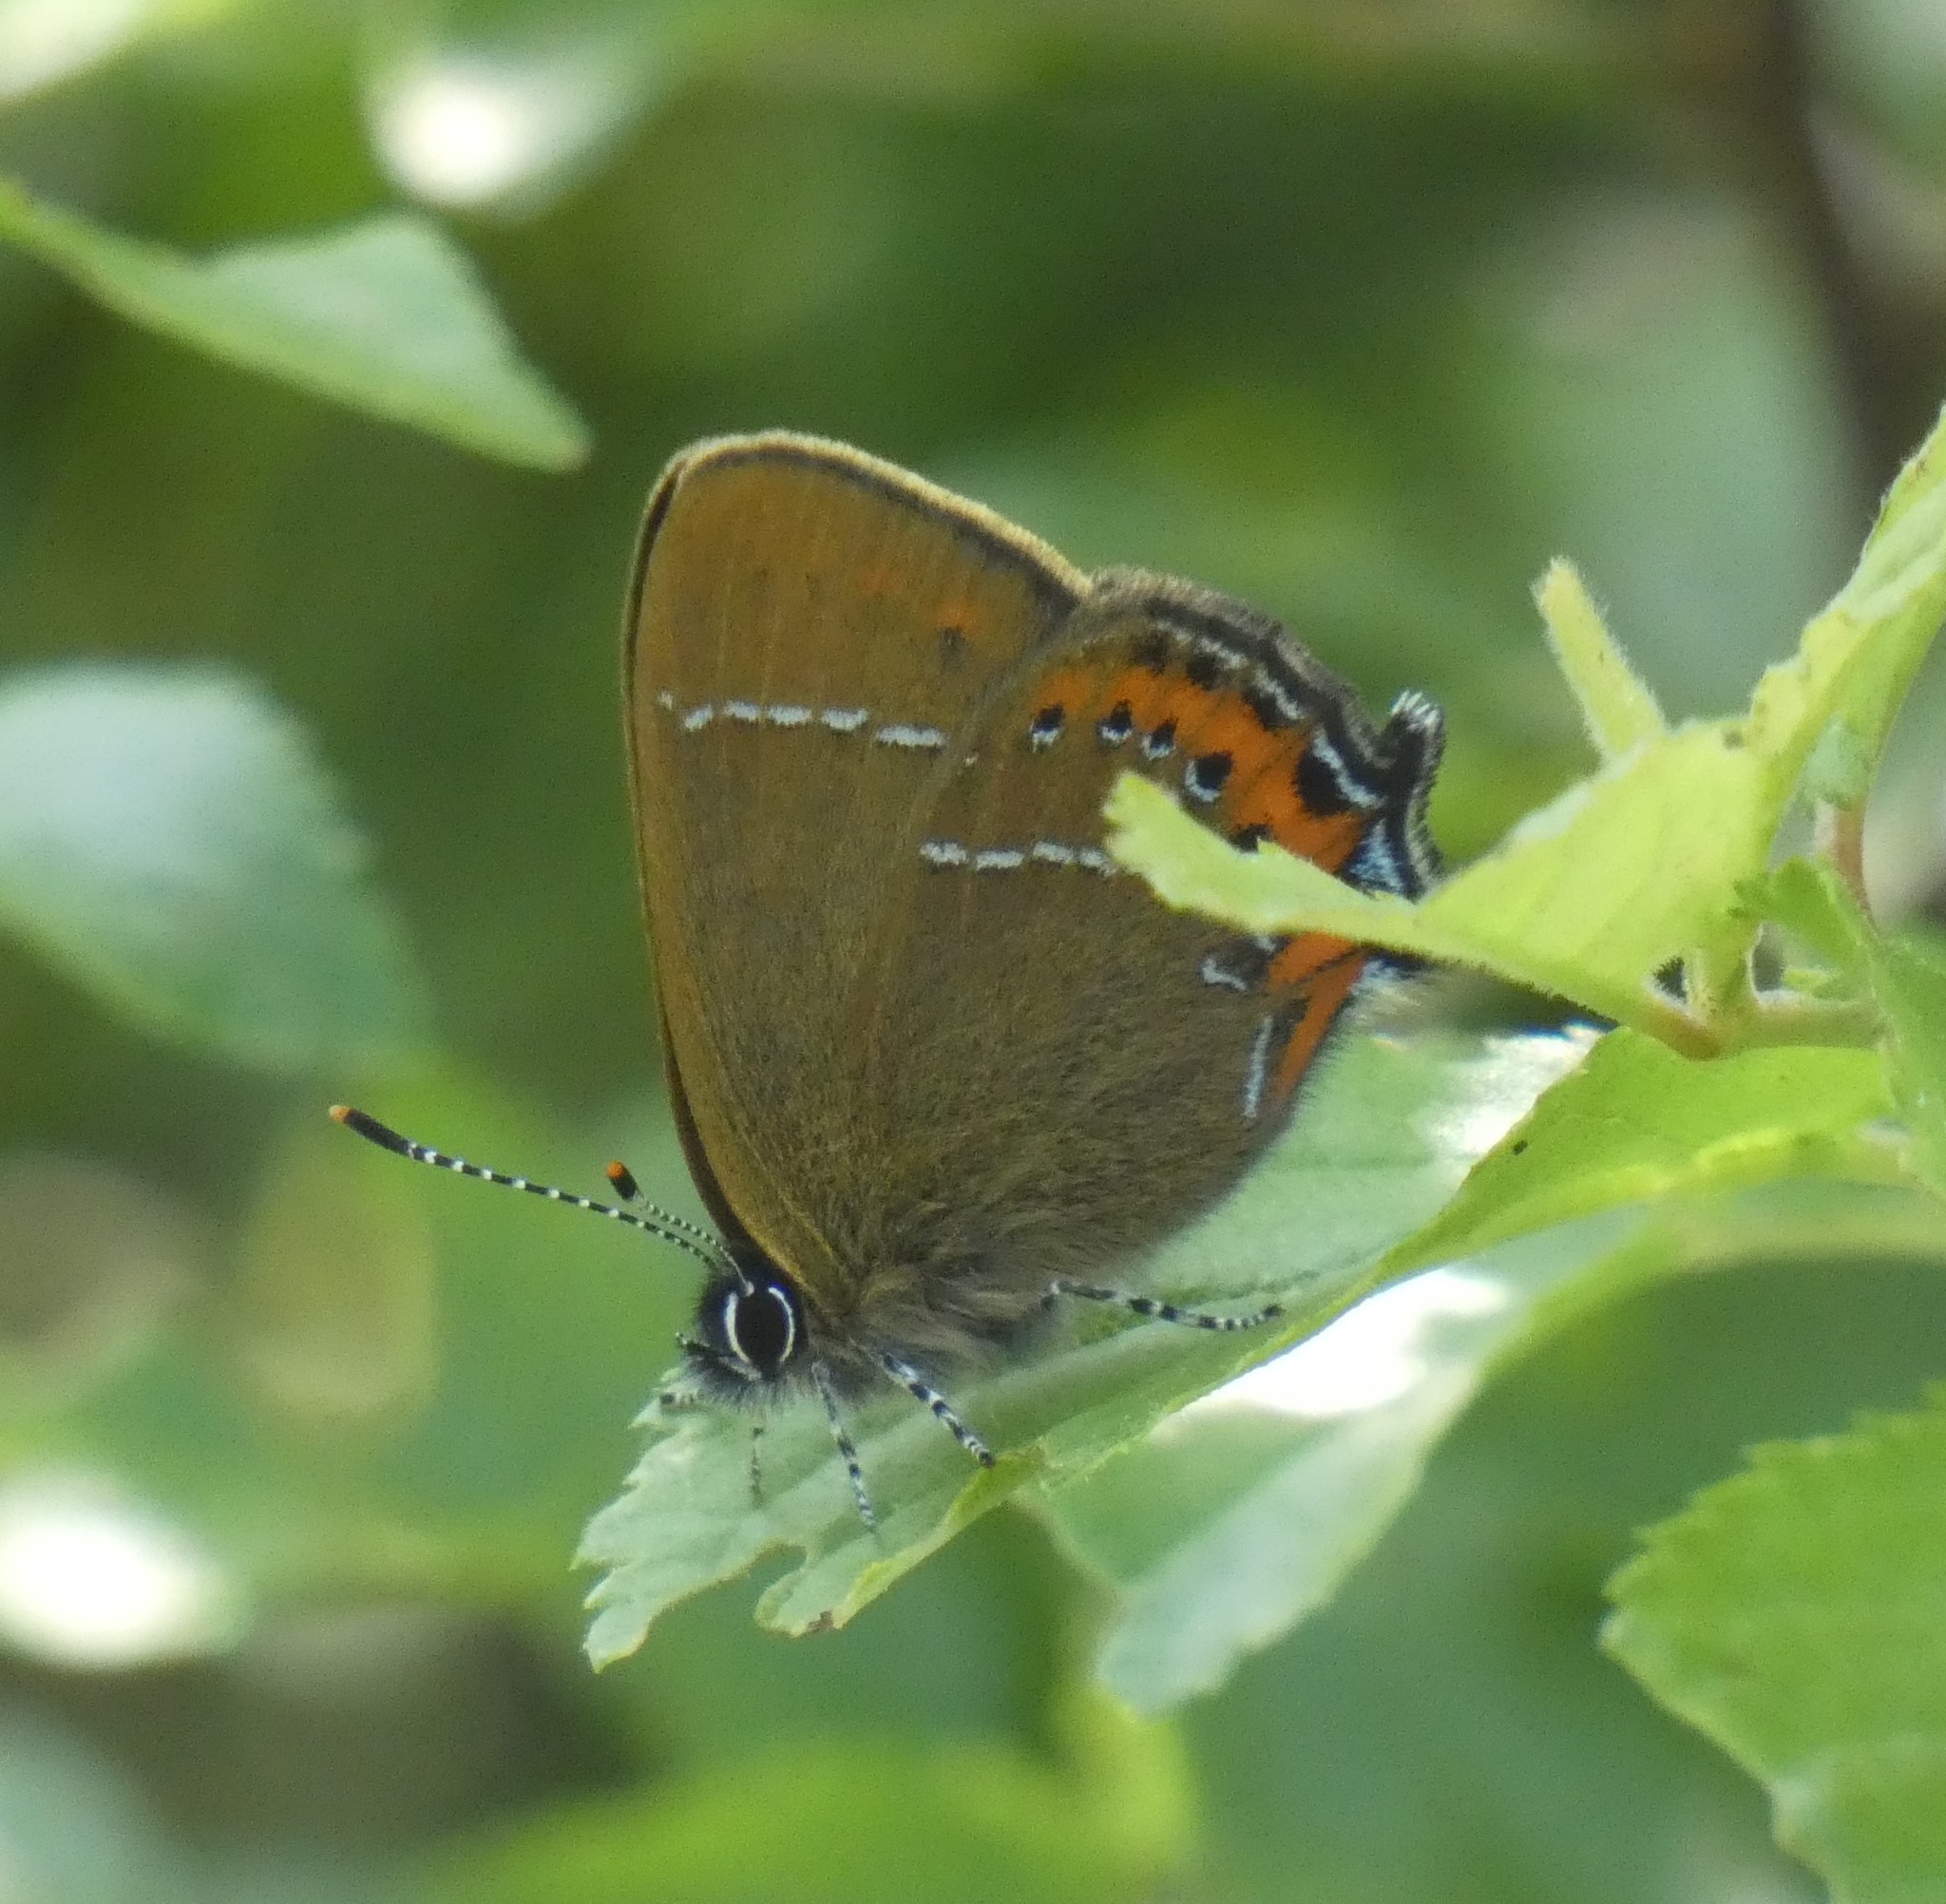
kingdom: Animalia
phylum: Arthropoda
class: Insecta
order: Lepidoptera
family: Lycaenidae
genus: Fixsenia
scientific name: Fixsenia pruni
